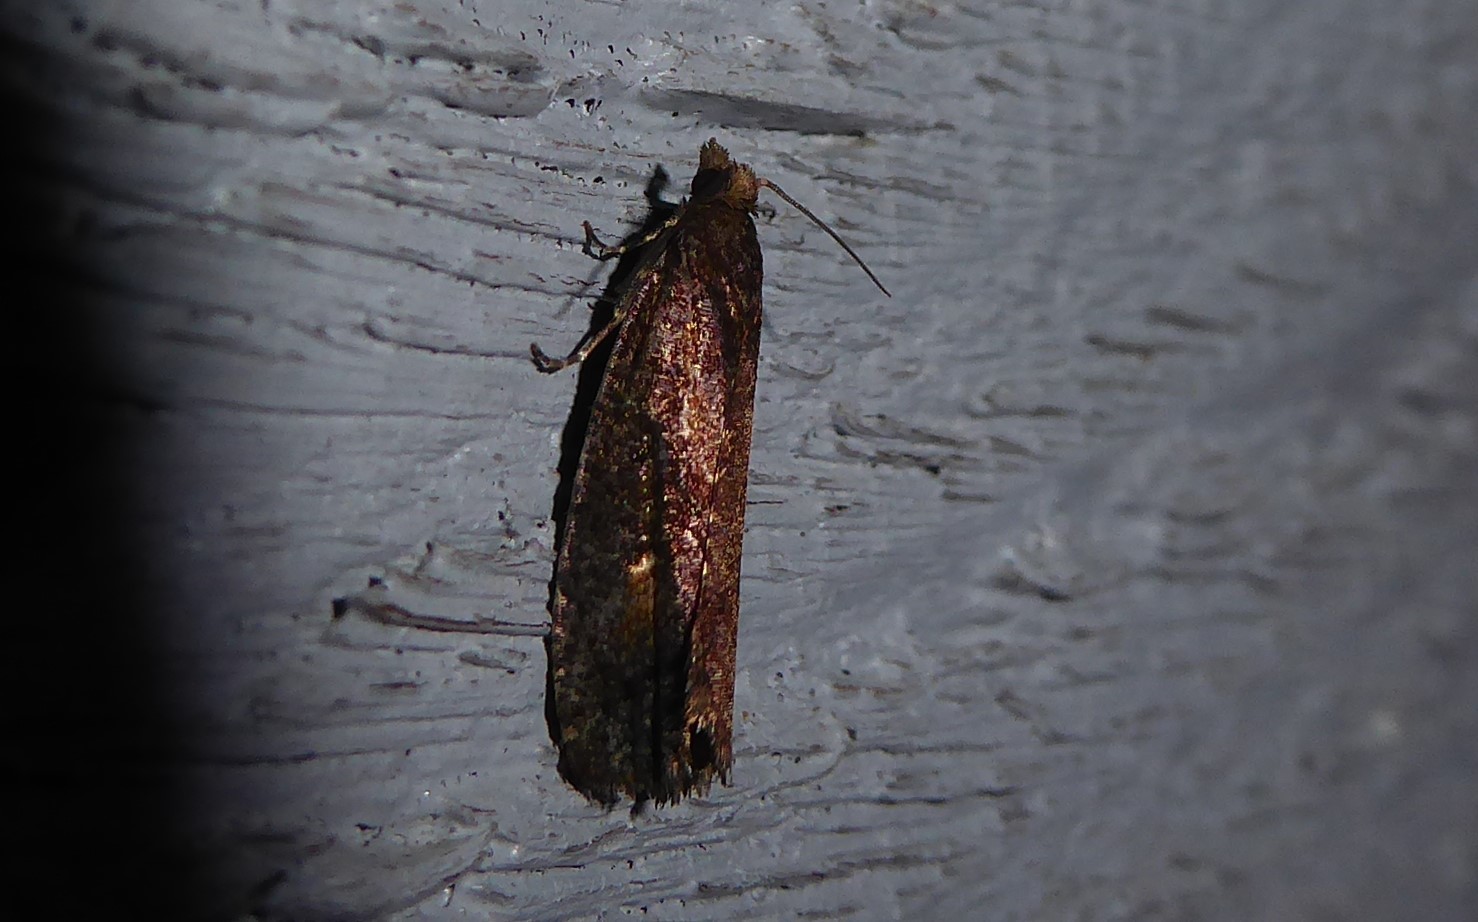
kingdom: Animalia
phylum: Arthropoda
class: Insecta
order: Lepidoptera
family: Tortricidae
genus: Cryptaspasma
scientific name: Cryptaspasma querula
